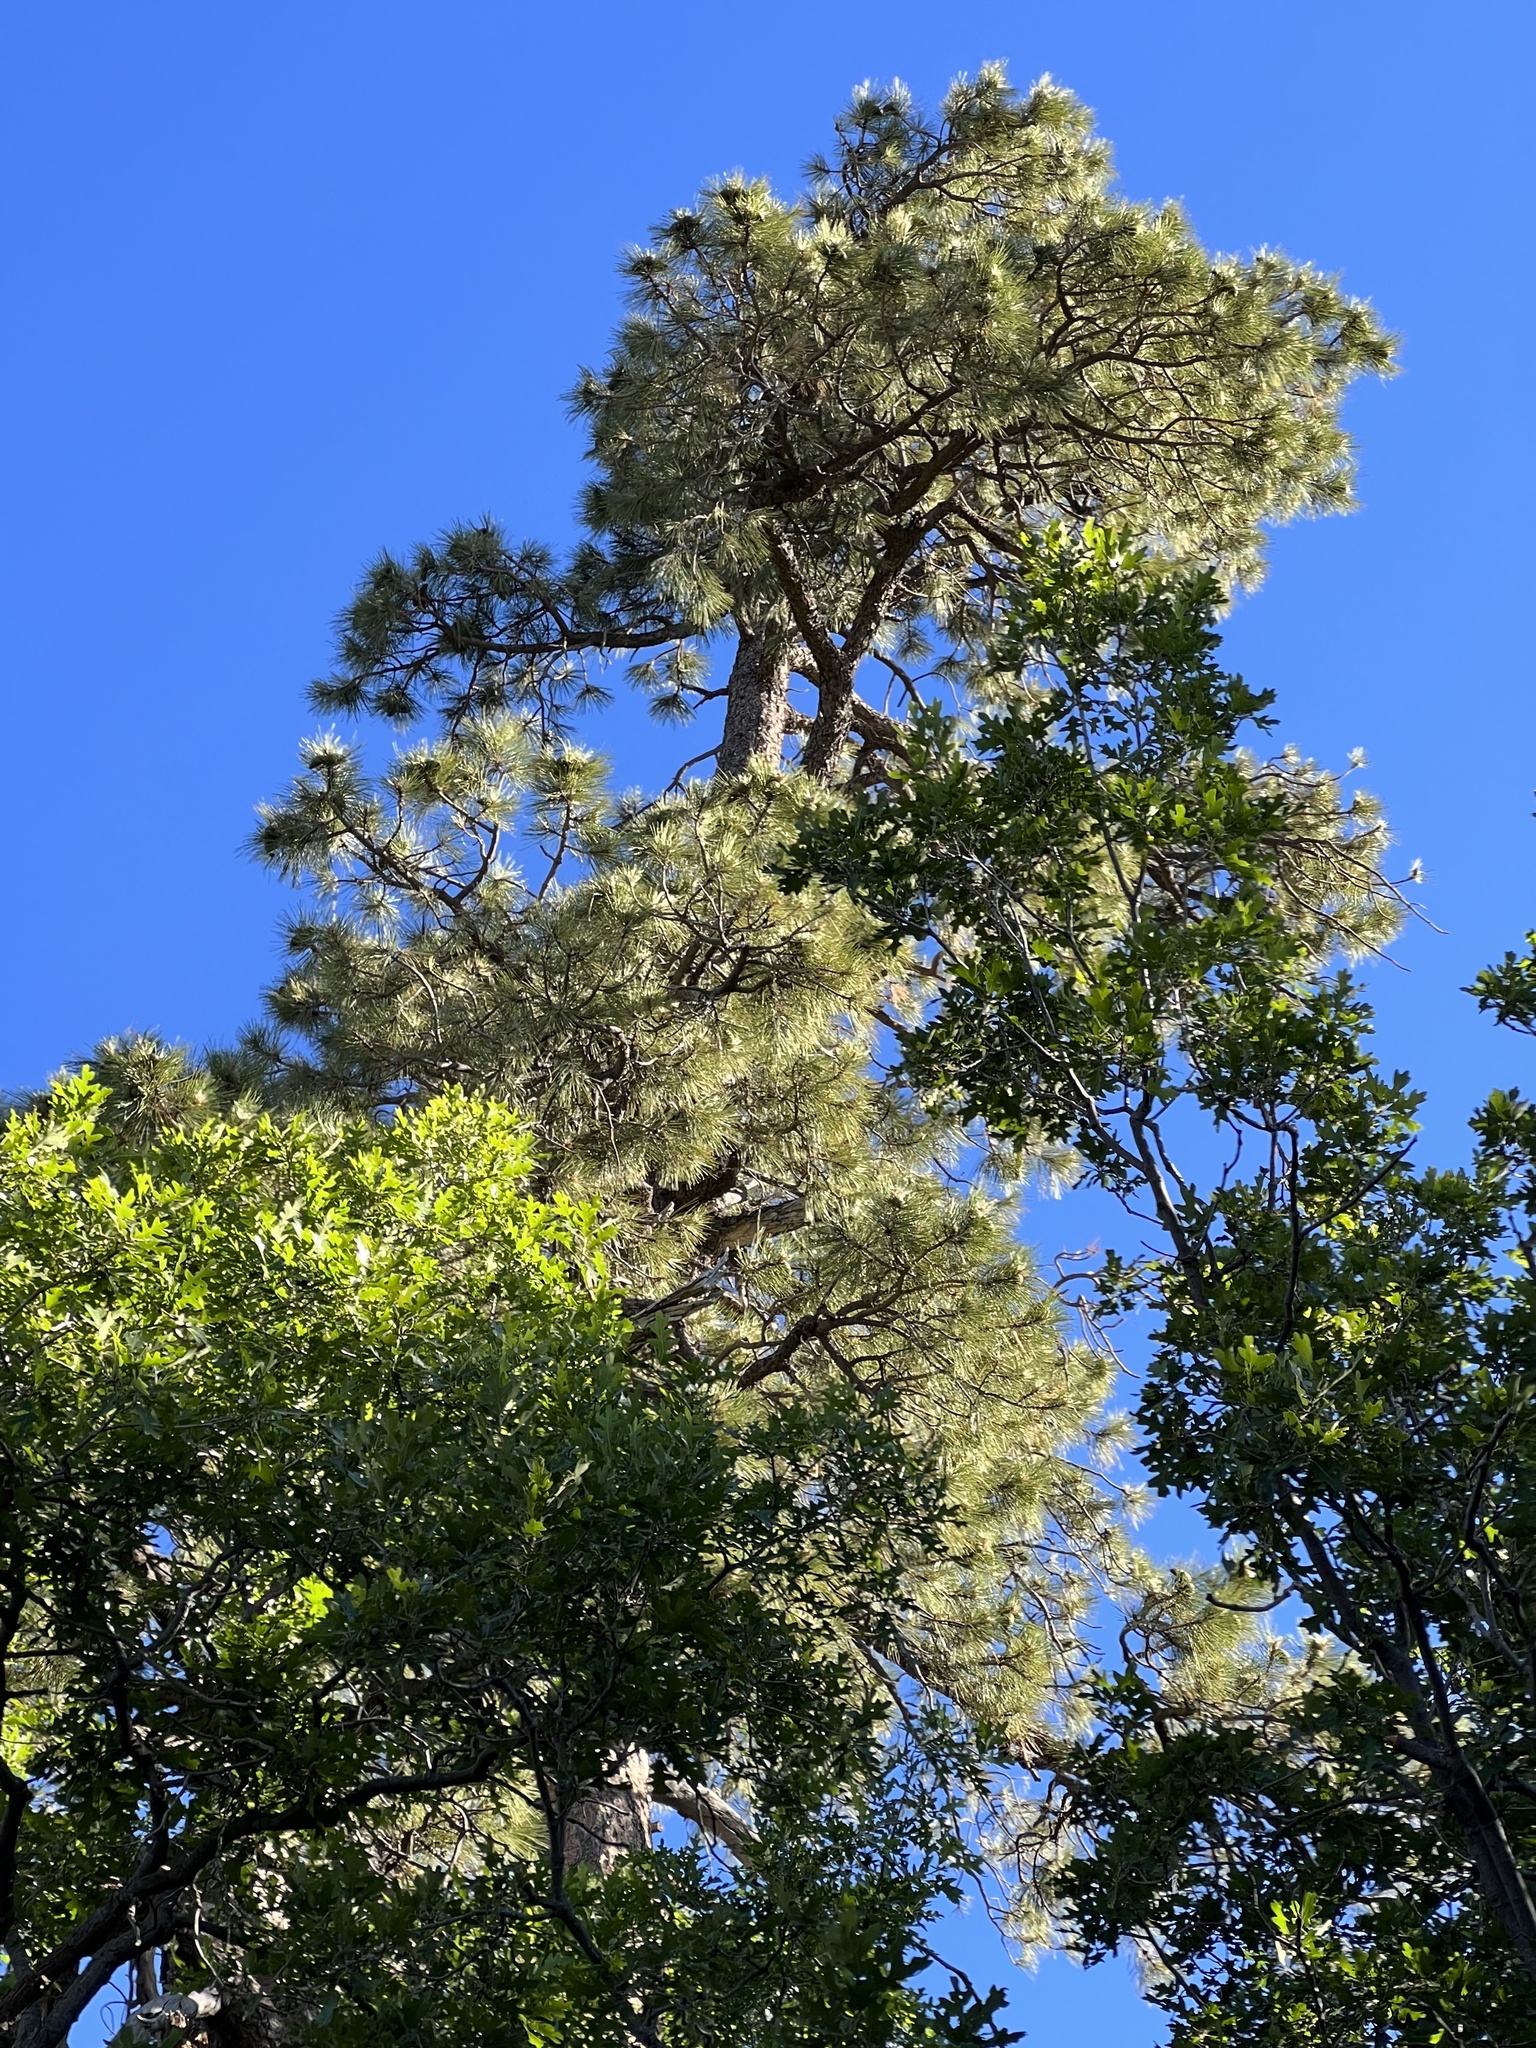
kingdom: Plantae
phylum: Tracheophyta
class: Pinopsida
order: Pinales
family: Pinaceae
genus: Pinus
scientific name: Pinus ponderosa
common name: Western yellow-pine
